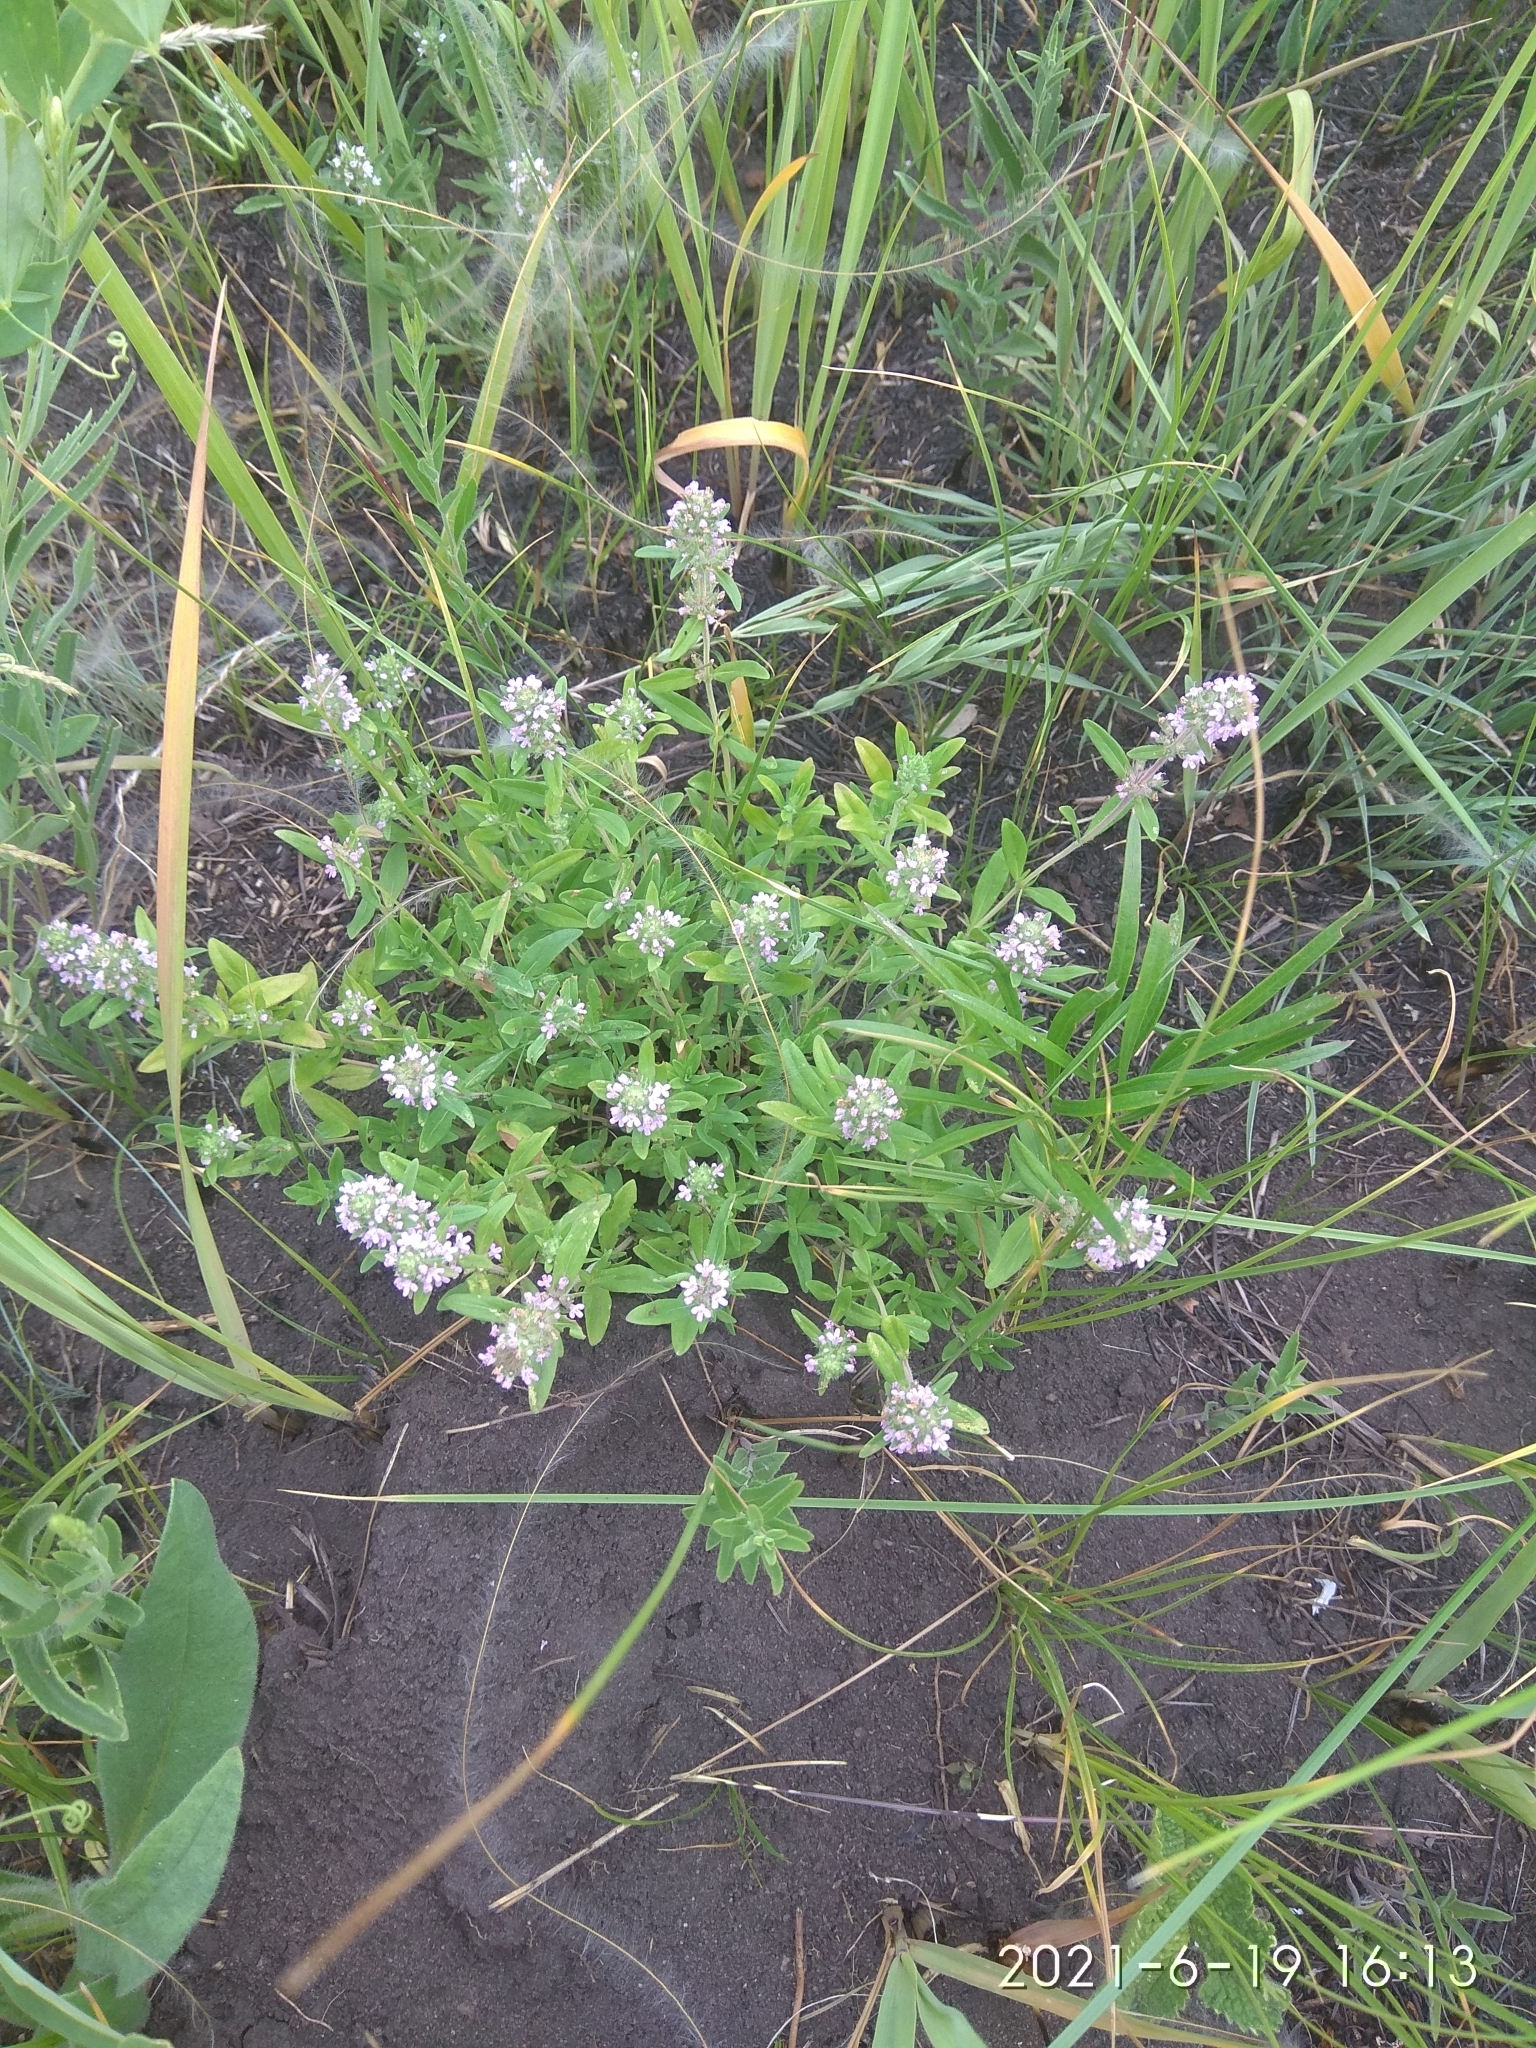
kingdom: Plantae
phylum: Tracheophyta
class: Magnoliopsida
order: Lamiales
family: Lamiaceae
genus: Thymus
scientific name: Thymus pannonicus
